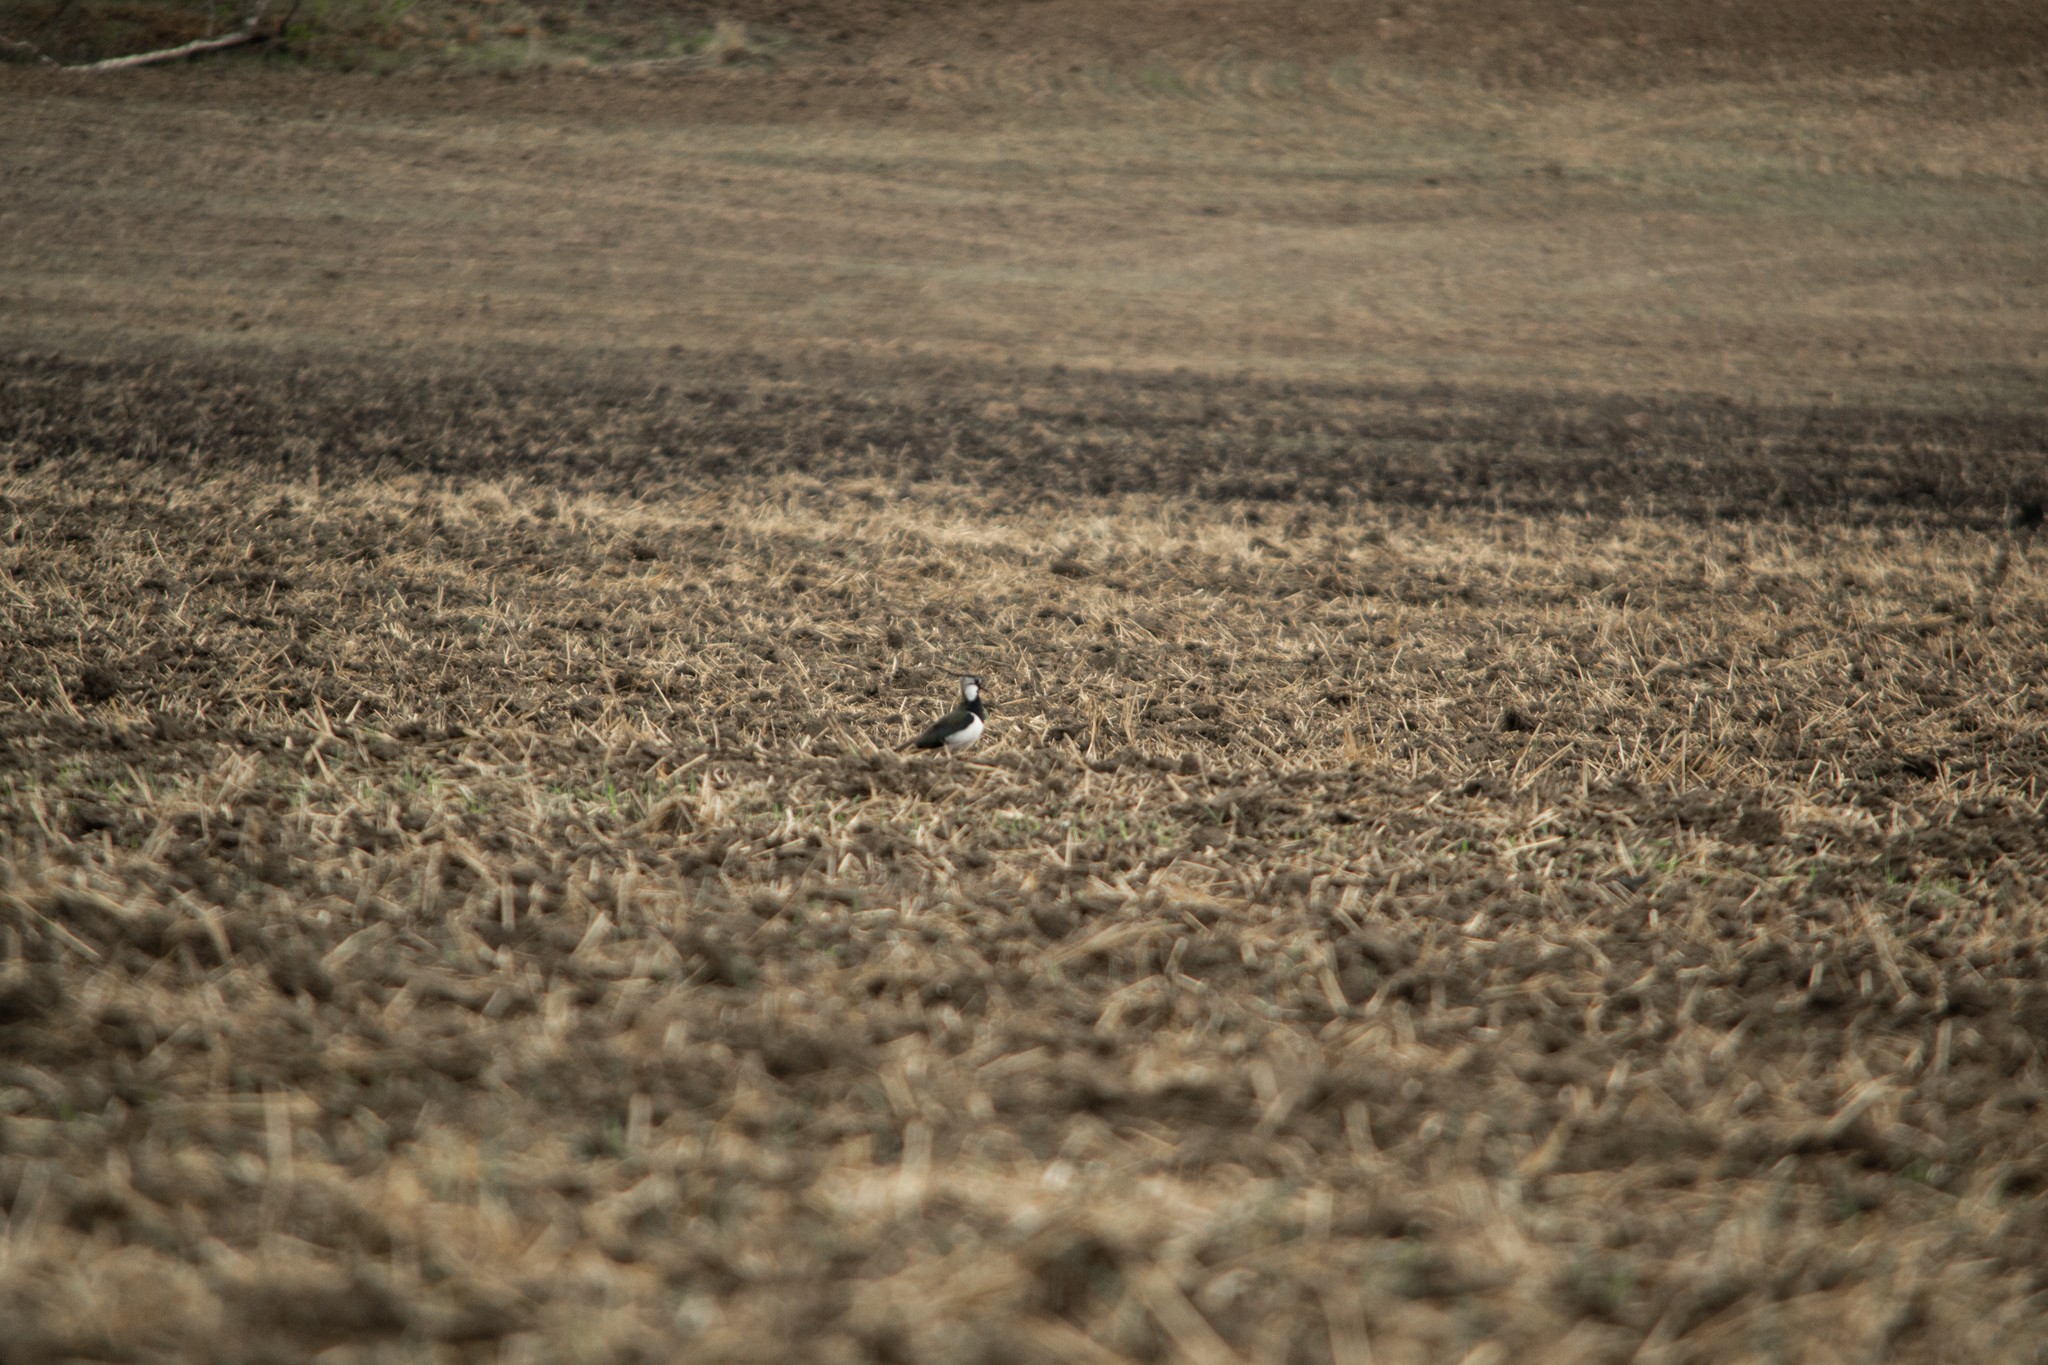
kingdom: Animalia
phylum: Chordata
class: Aves
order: Charadriiformes
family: Charadriidae
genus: Vanellus
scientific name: Vanellus vanellus
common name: Northern lapwing
